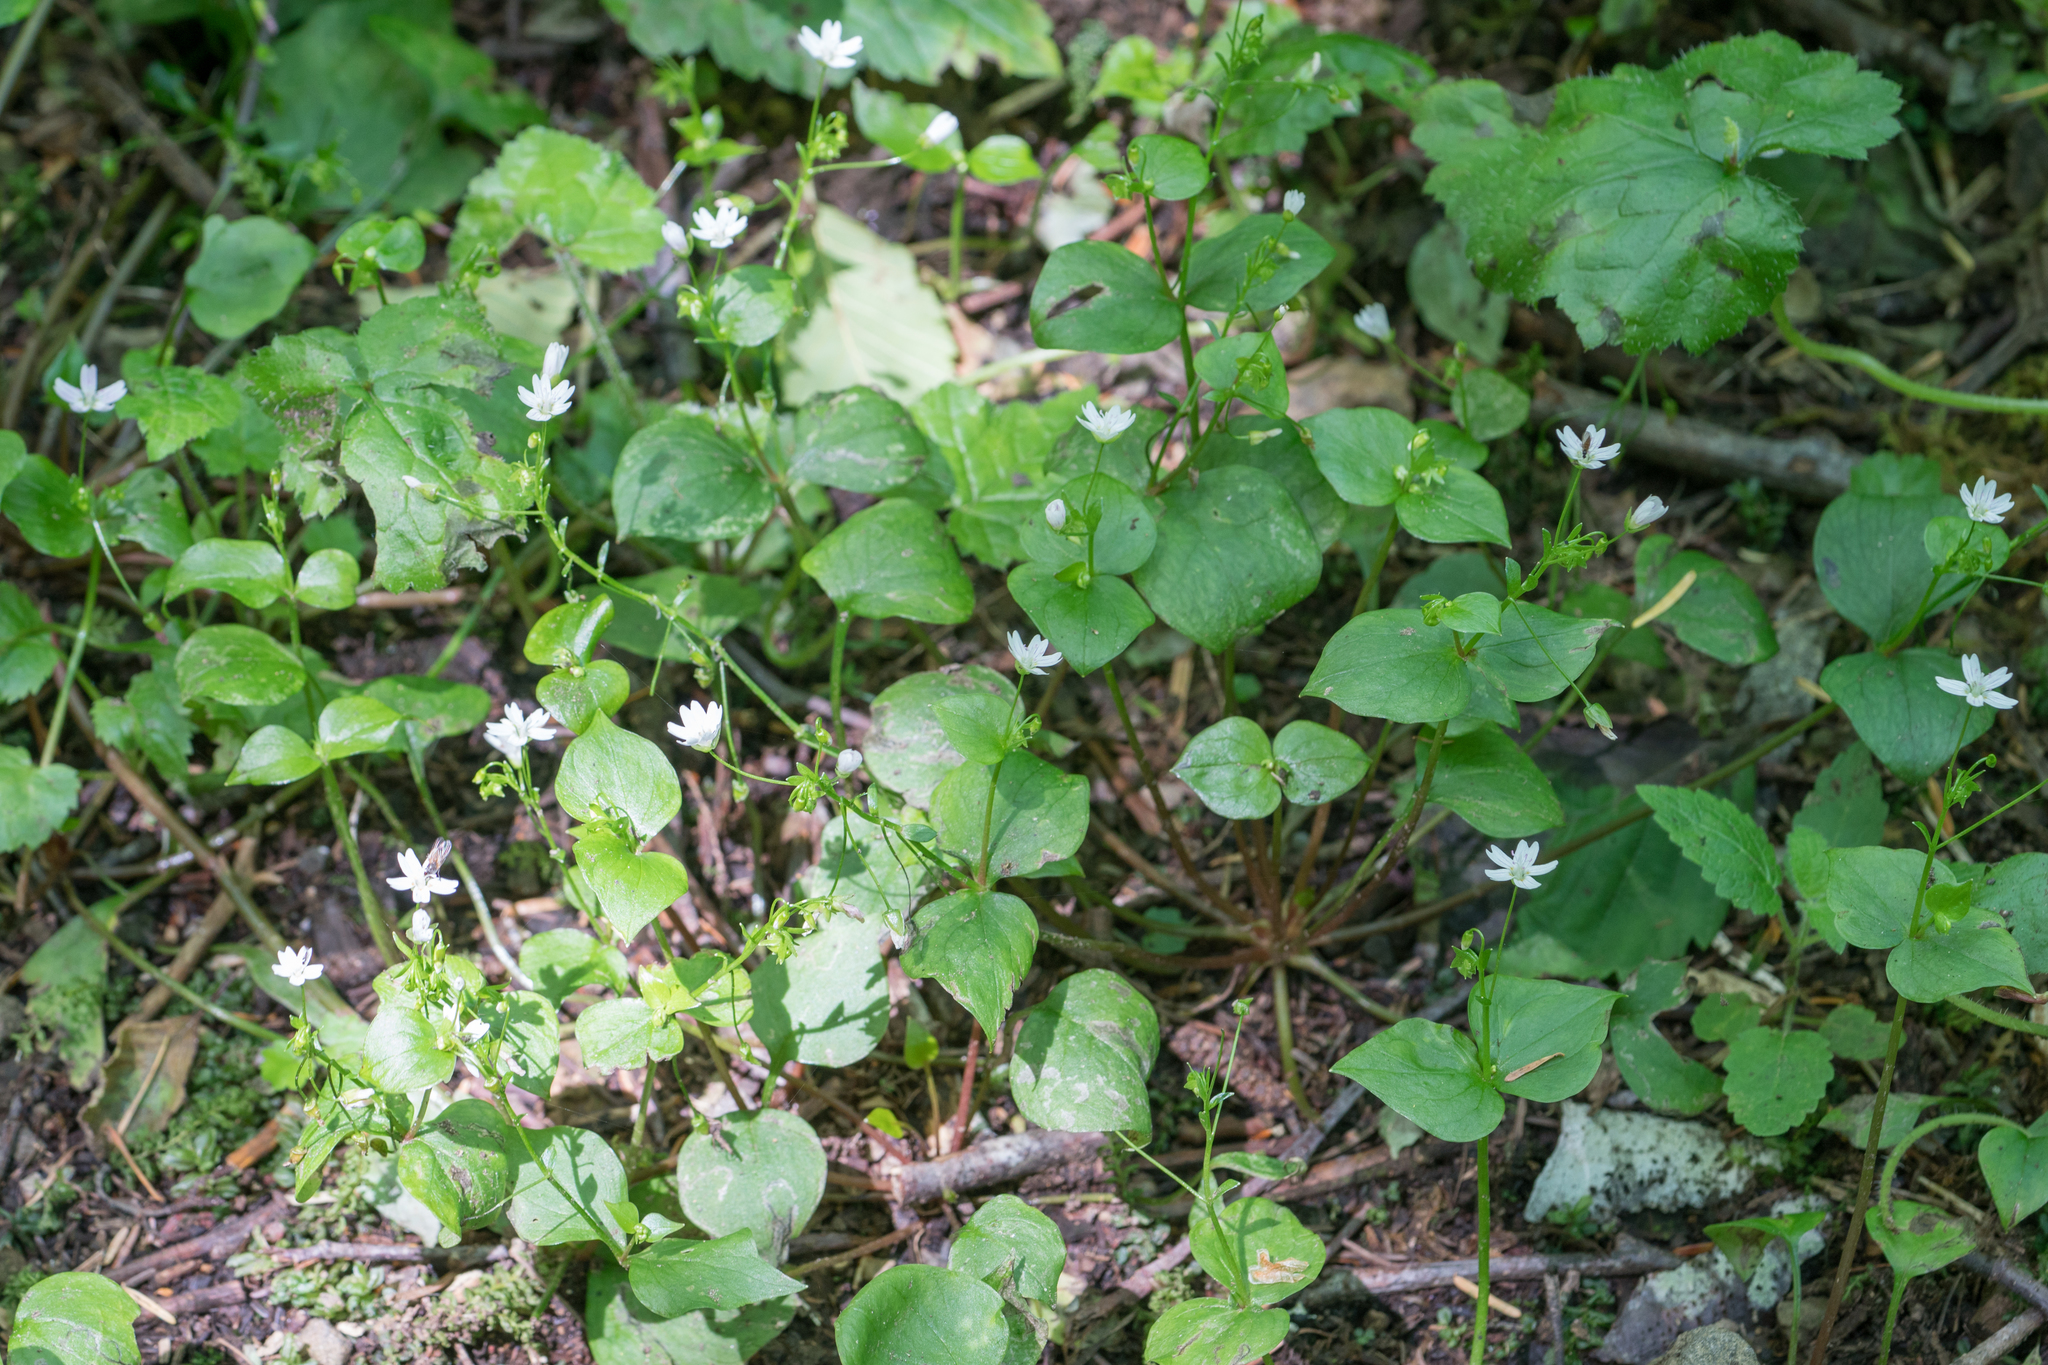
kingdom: Plantae
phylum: Tracheophyta
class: Magnoliopsida
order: Caryophyllales
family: Montiaceae
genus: Claytonia
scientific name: Claytonia sibirica
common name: Pink purslane
